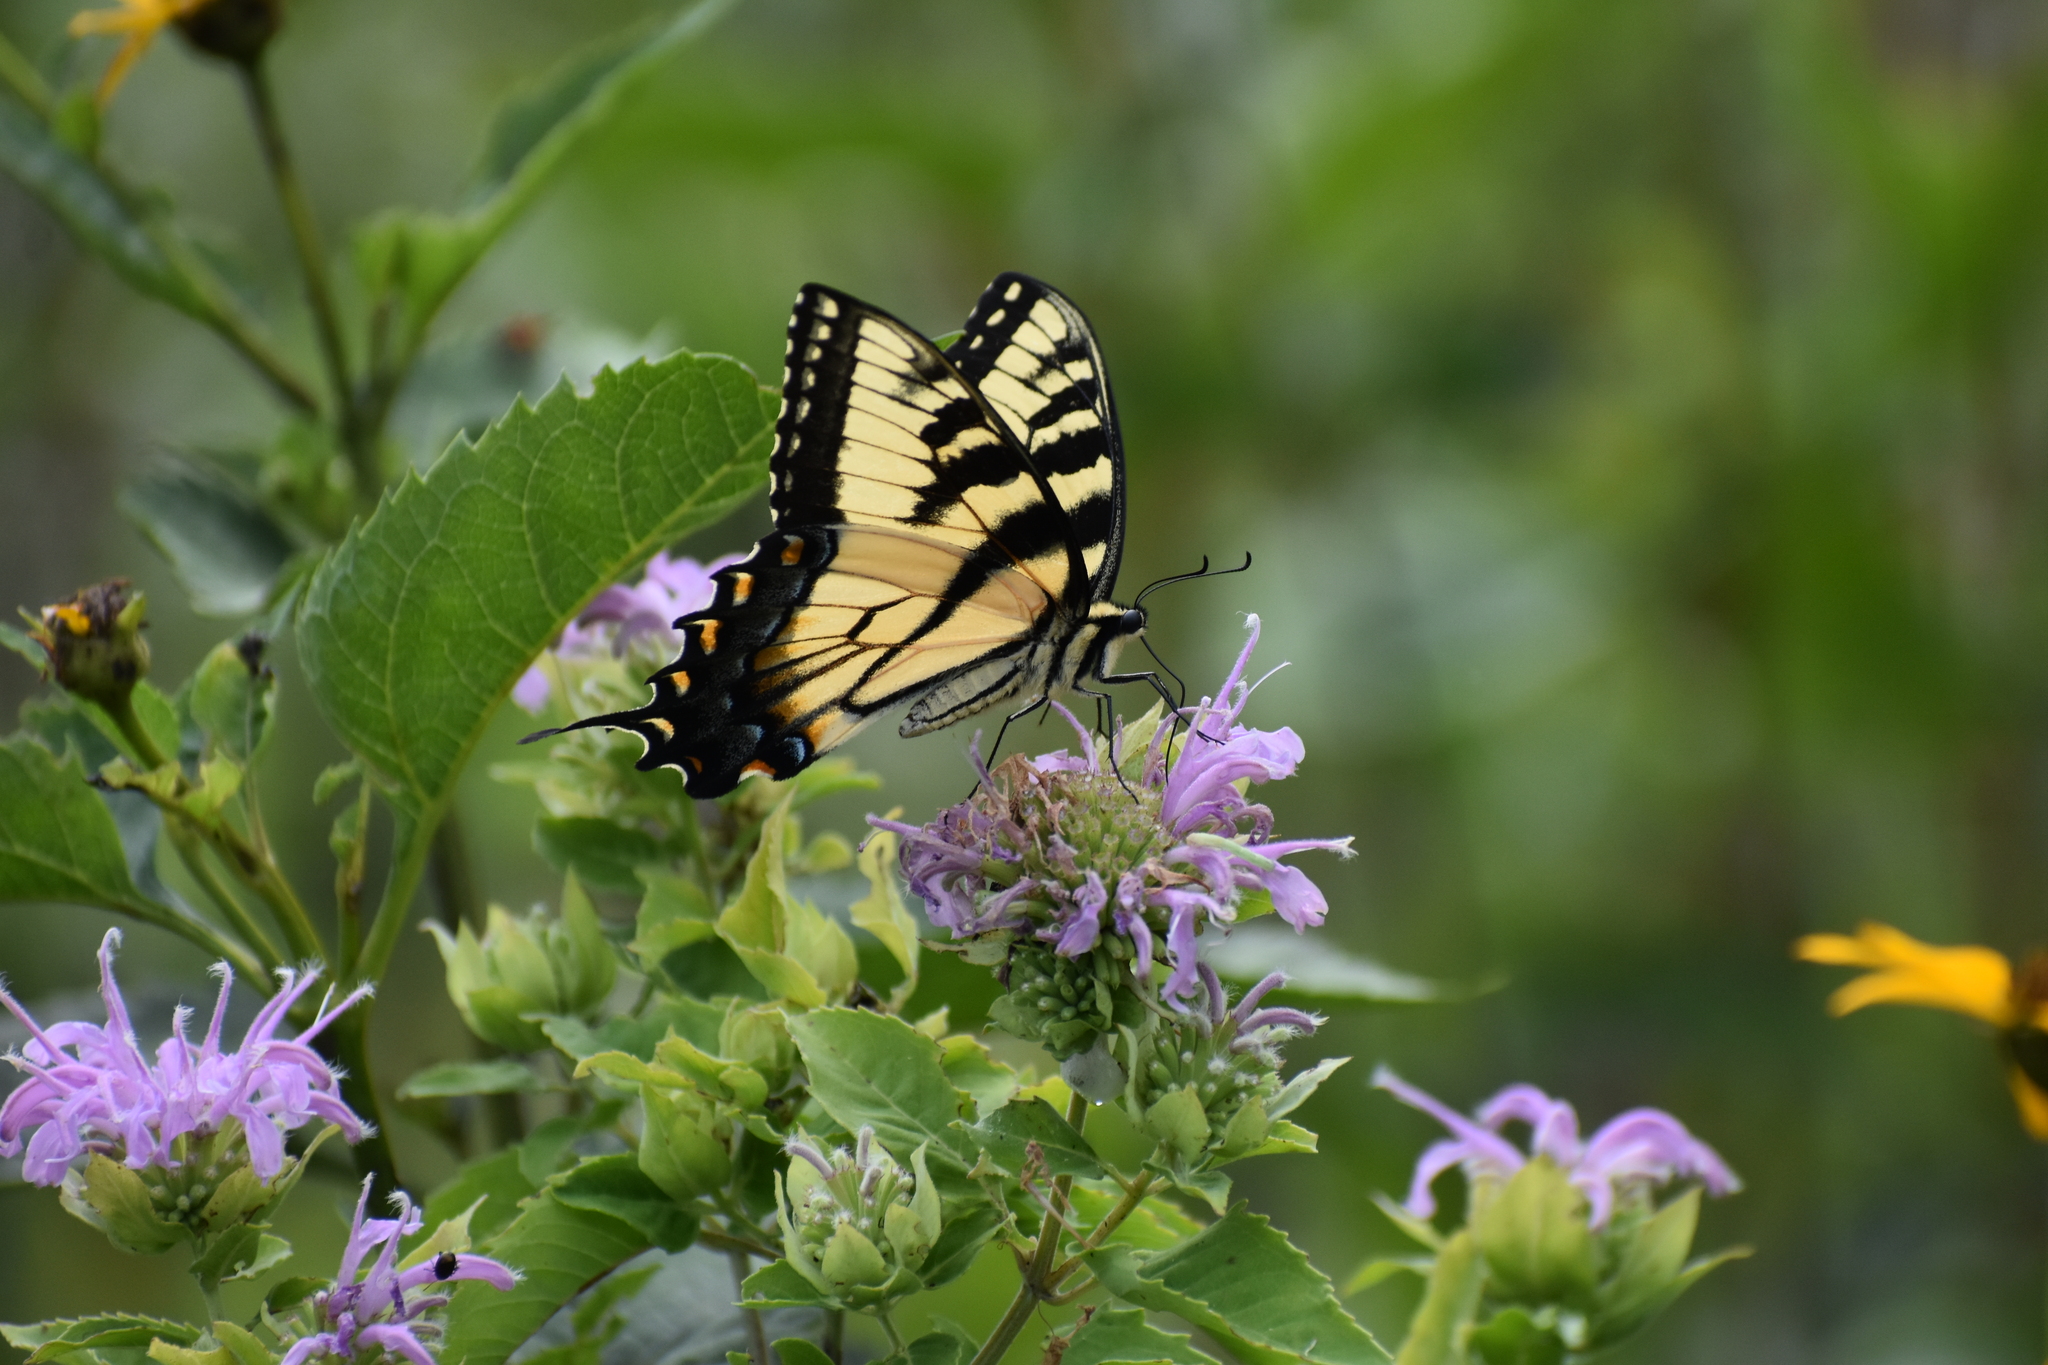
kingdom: Animalia
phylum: Arthropoda
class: Insecta
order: Lepidoptera
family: Papilionidae
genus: Papilio
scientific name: Papilio glaucus
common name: Tiger swallowtail
